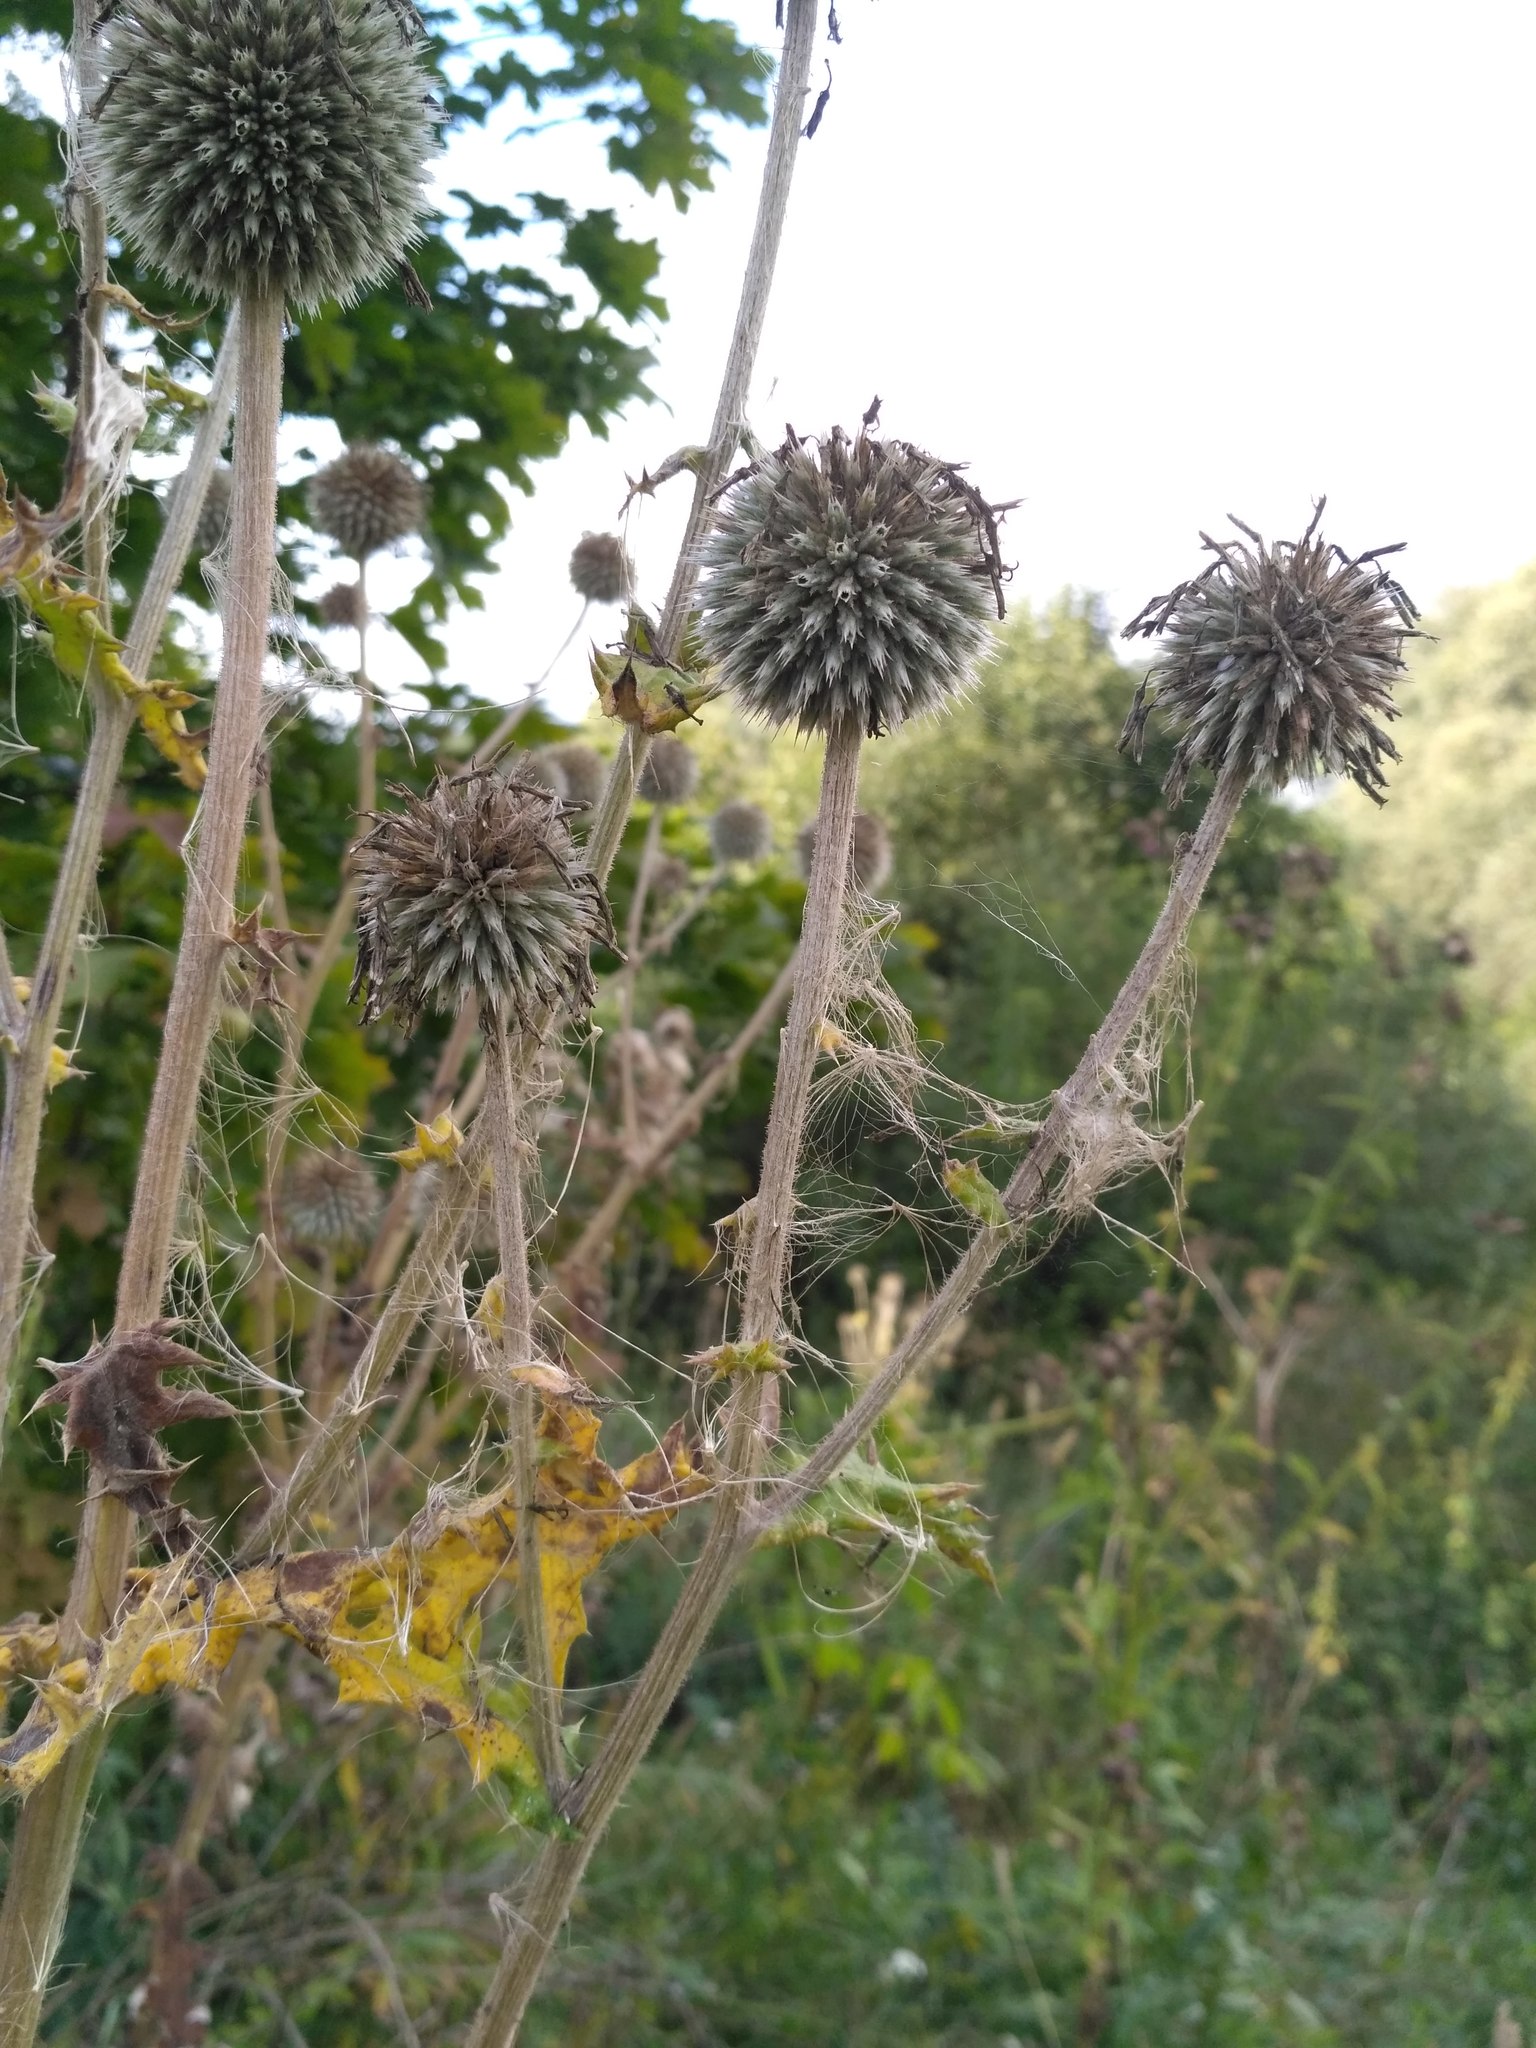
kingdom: Plantae
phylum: Tracheophyta
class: Magnoliopsida
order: Asterales
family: Asteraceae
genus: Echinops
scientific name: Echinops sphaerocephalus
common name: Glandular globe-thistle
